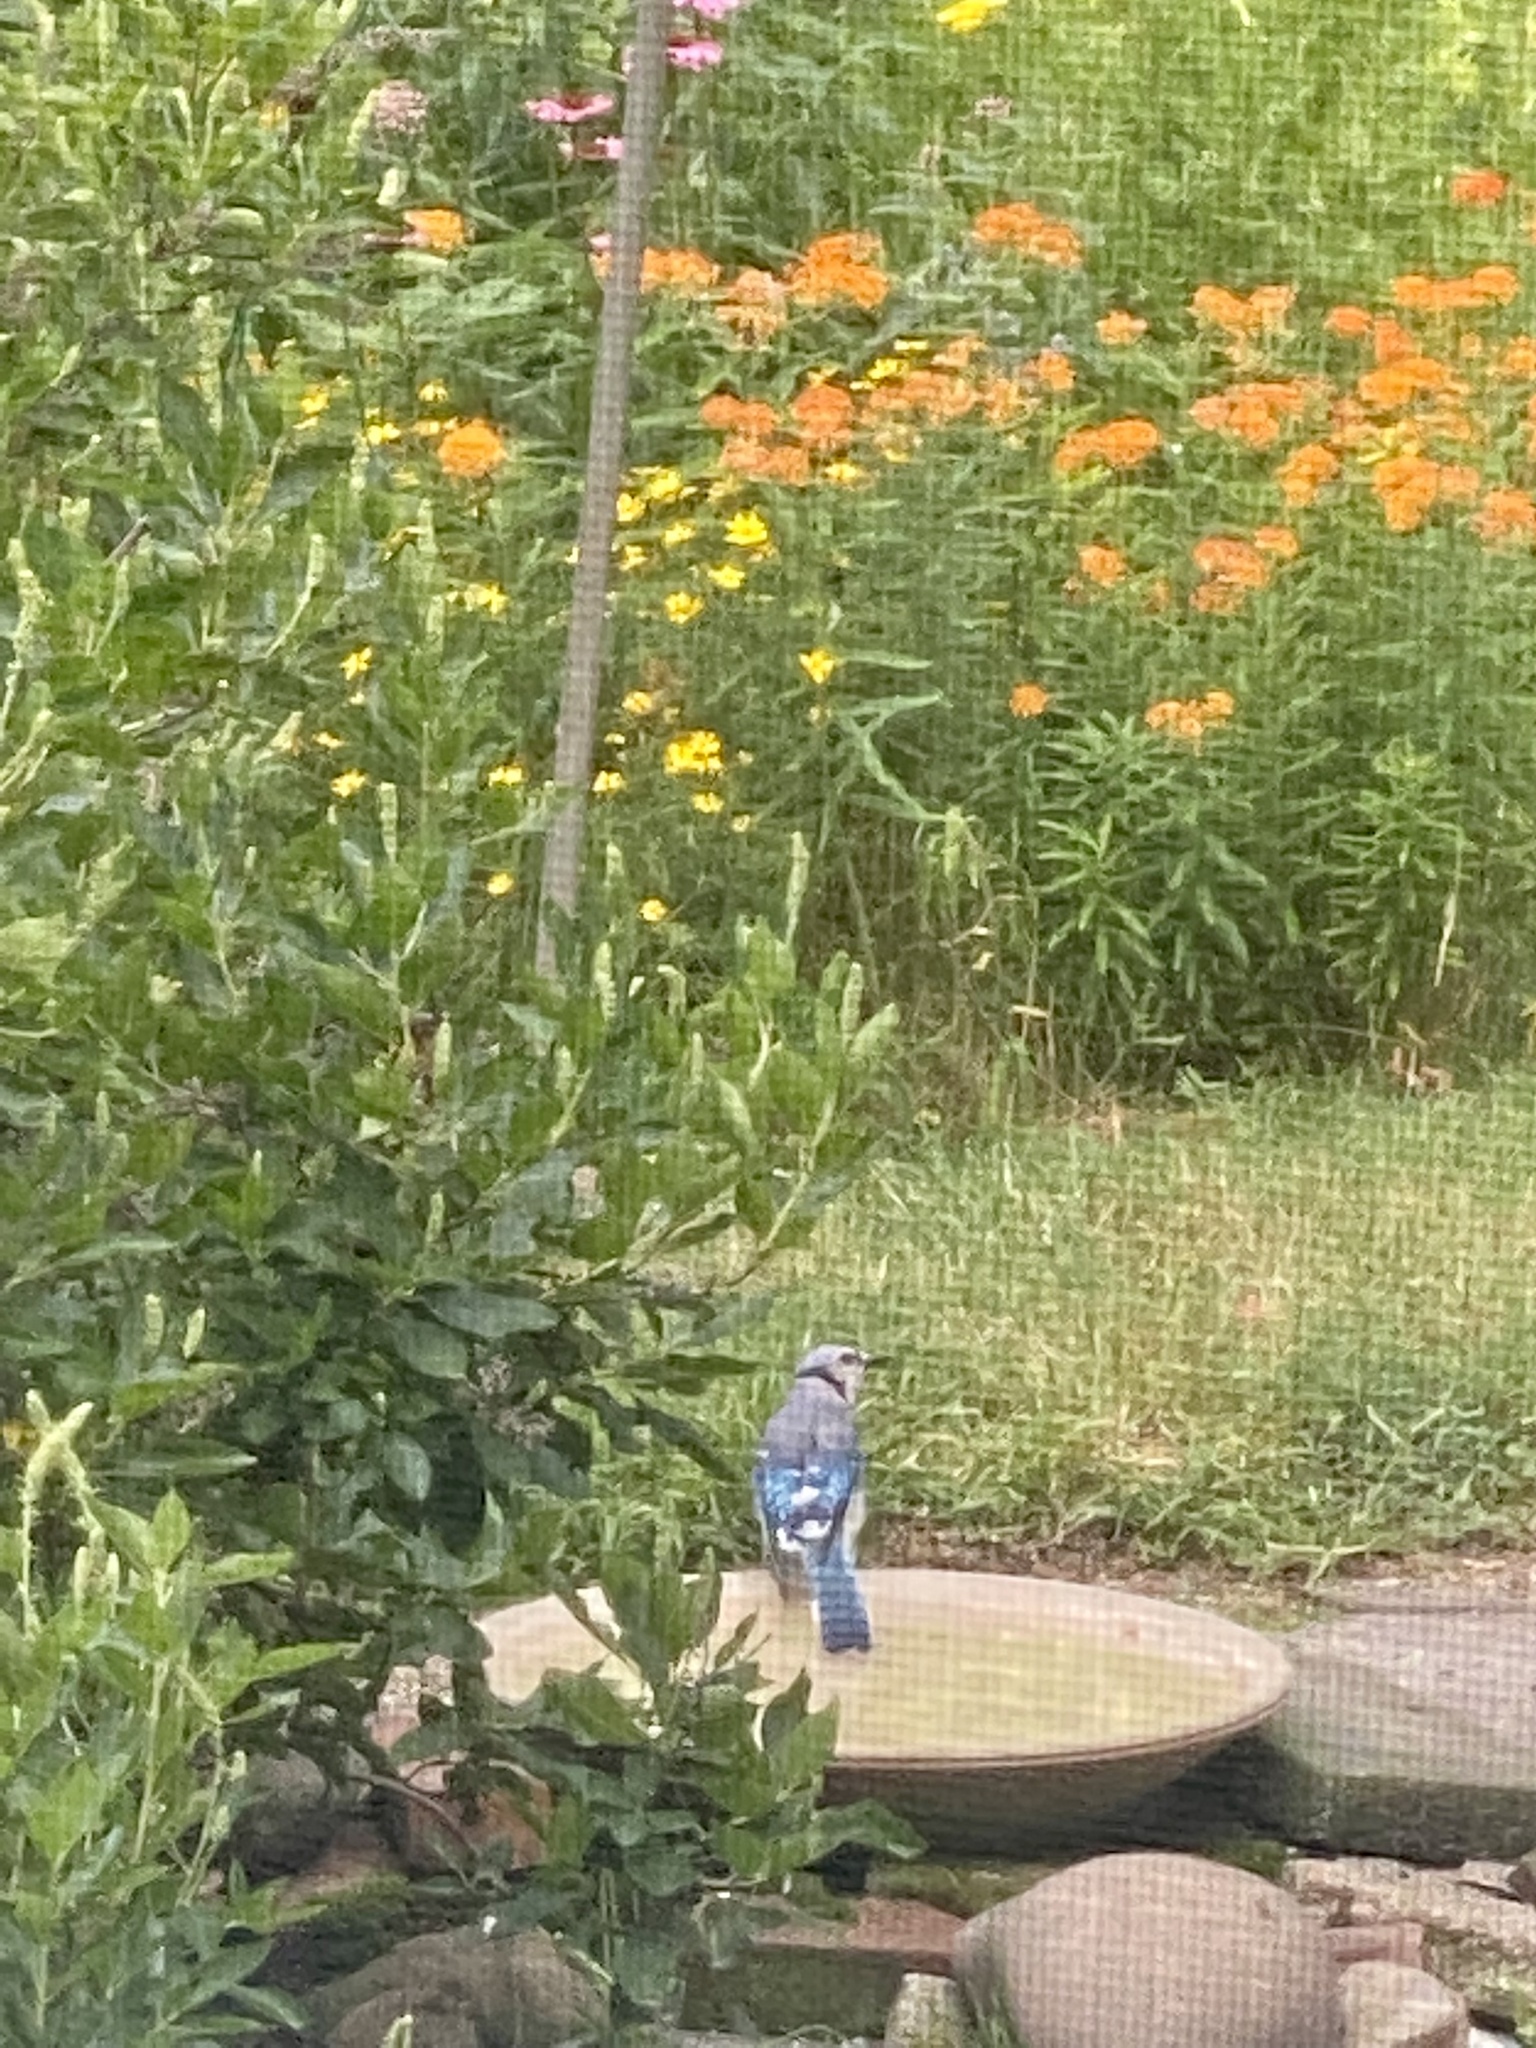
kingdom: Animalia
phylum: Chordata
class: Aves
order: Passeriformes
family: Corvidae
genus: Cyanocitta
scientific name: Cyanocitta cristata
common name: Blue jay
